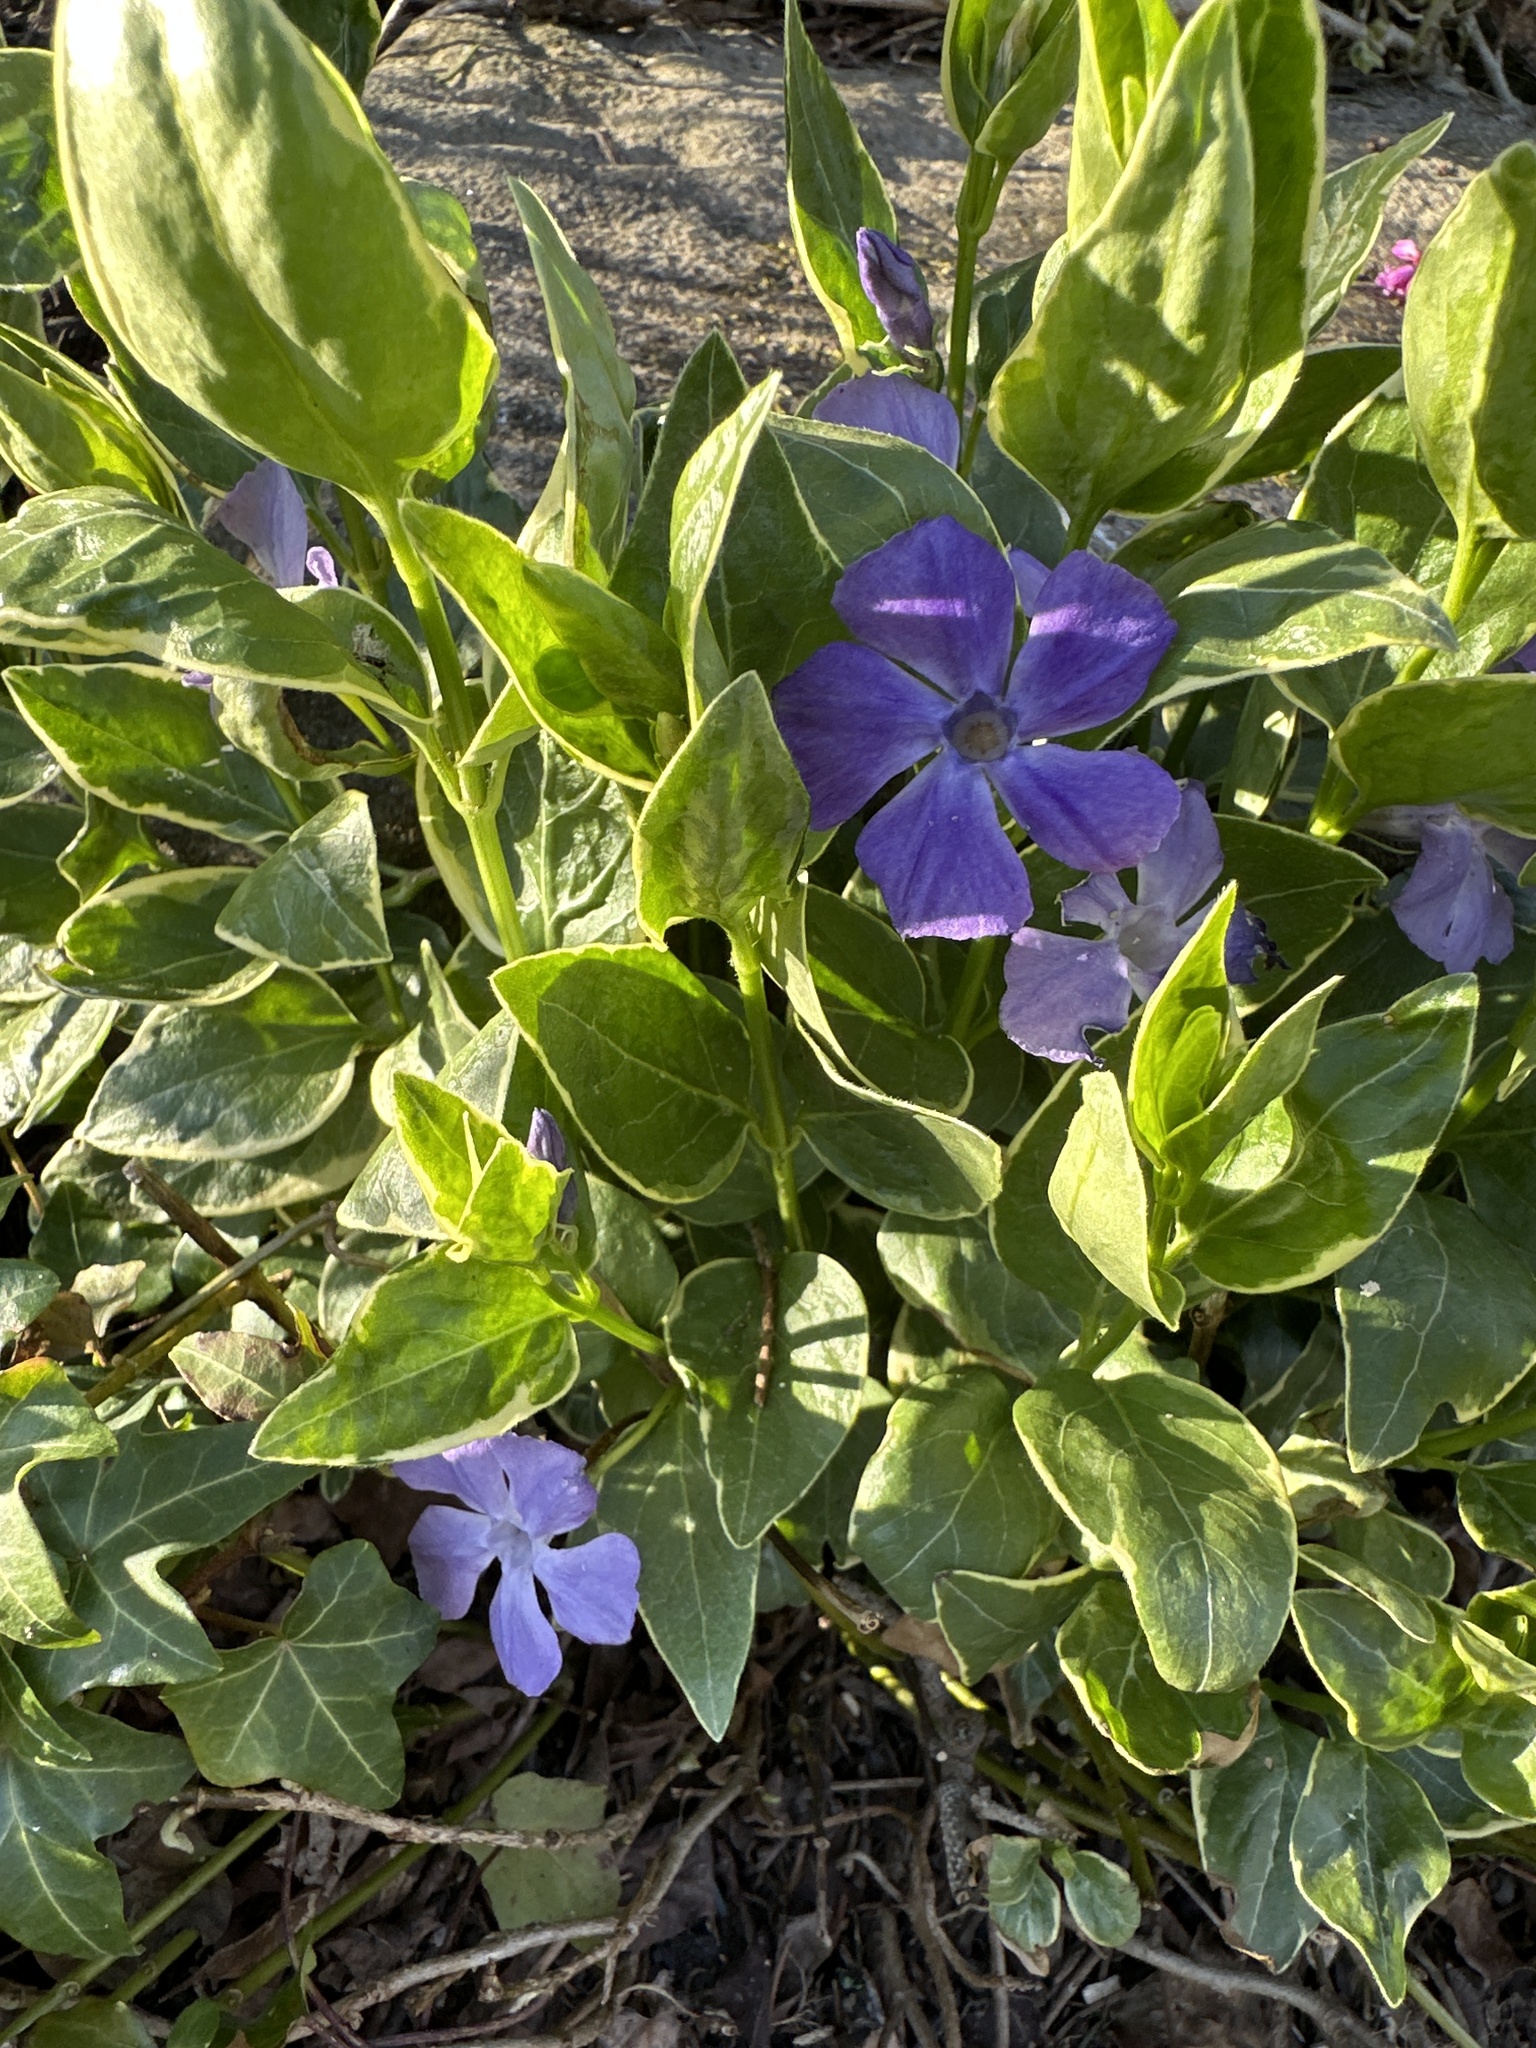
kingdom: Plantae
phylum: Tracheophyta
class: Magnoliopsida
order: Gentianales
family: Apocynaceae
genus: Vinca
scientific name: Vinca major
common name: Greater periwinkle
